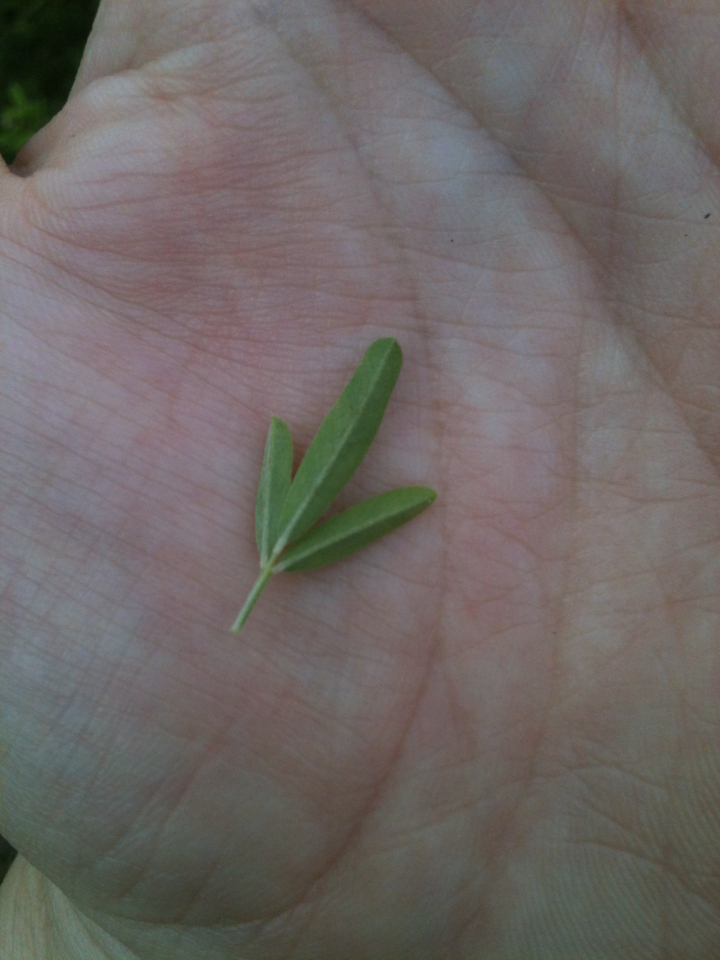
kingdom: Plantae
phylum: Tracheophyta
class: Magnoliopsida
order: Fabales
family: Fabaceae
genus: Lespedeza
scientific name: Lespedeza cuneata
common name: Chinese bush-clover
